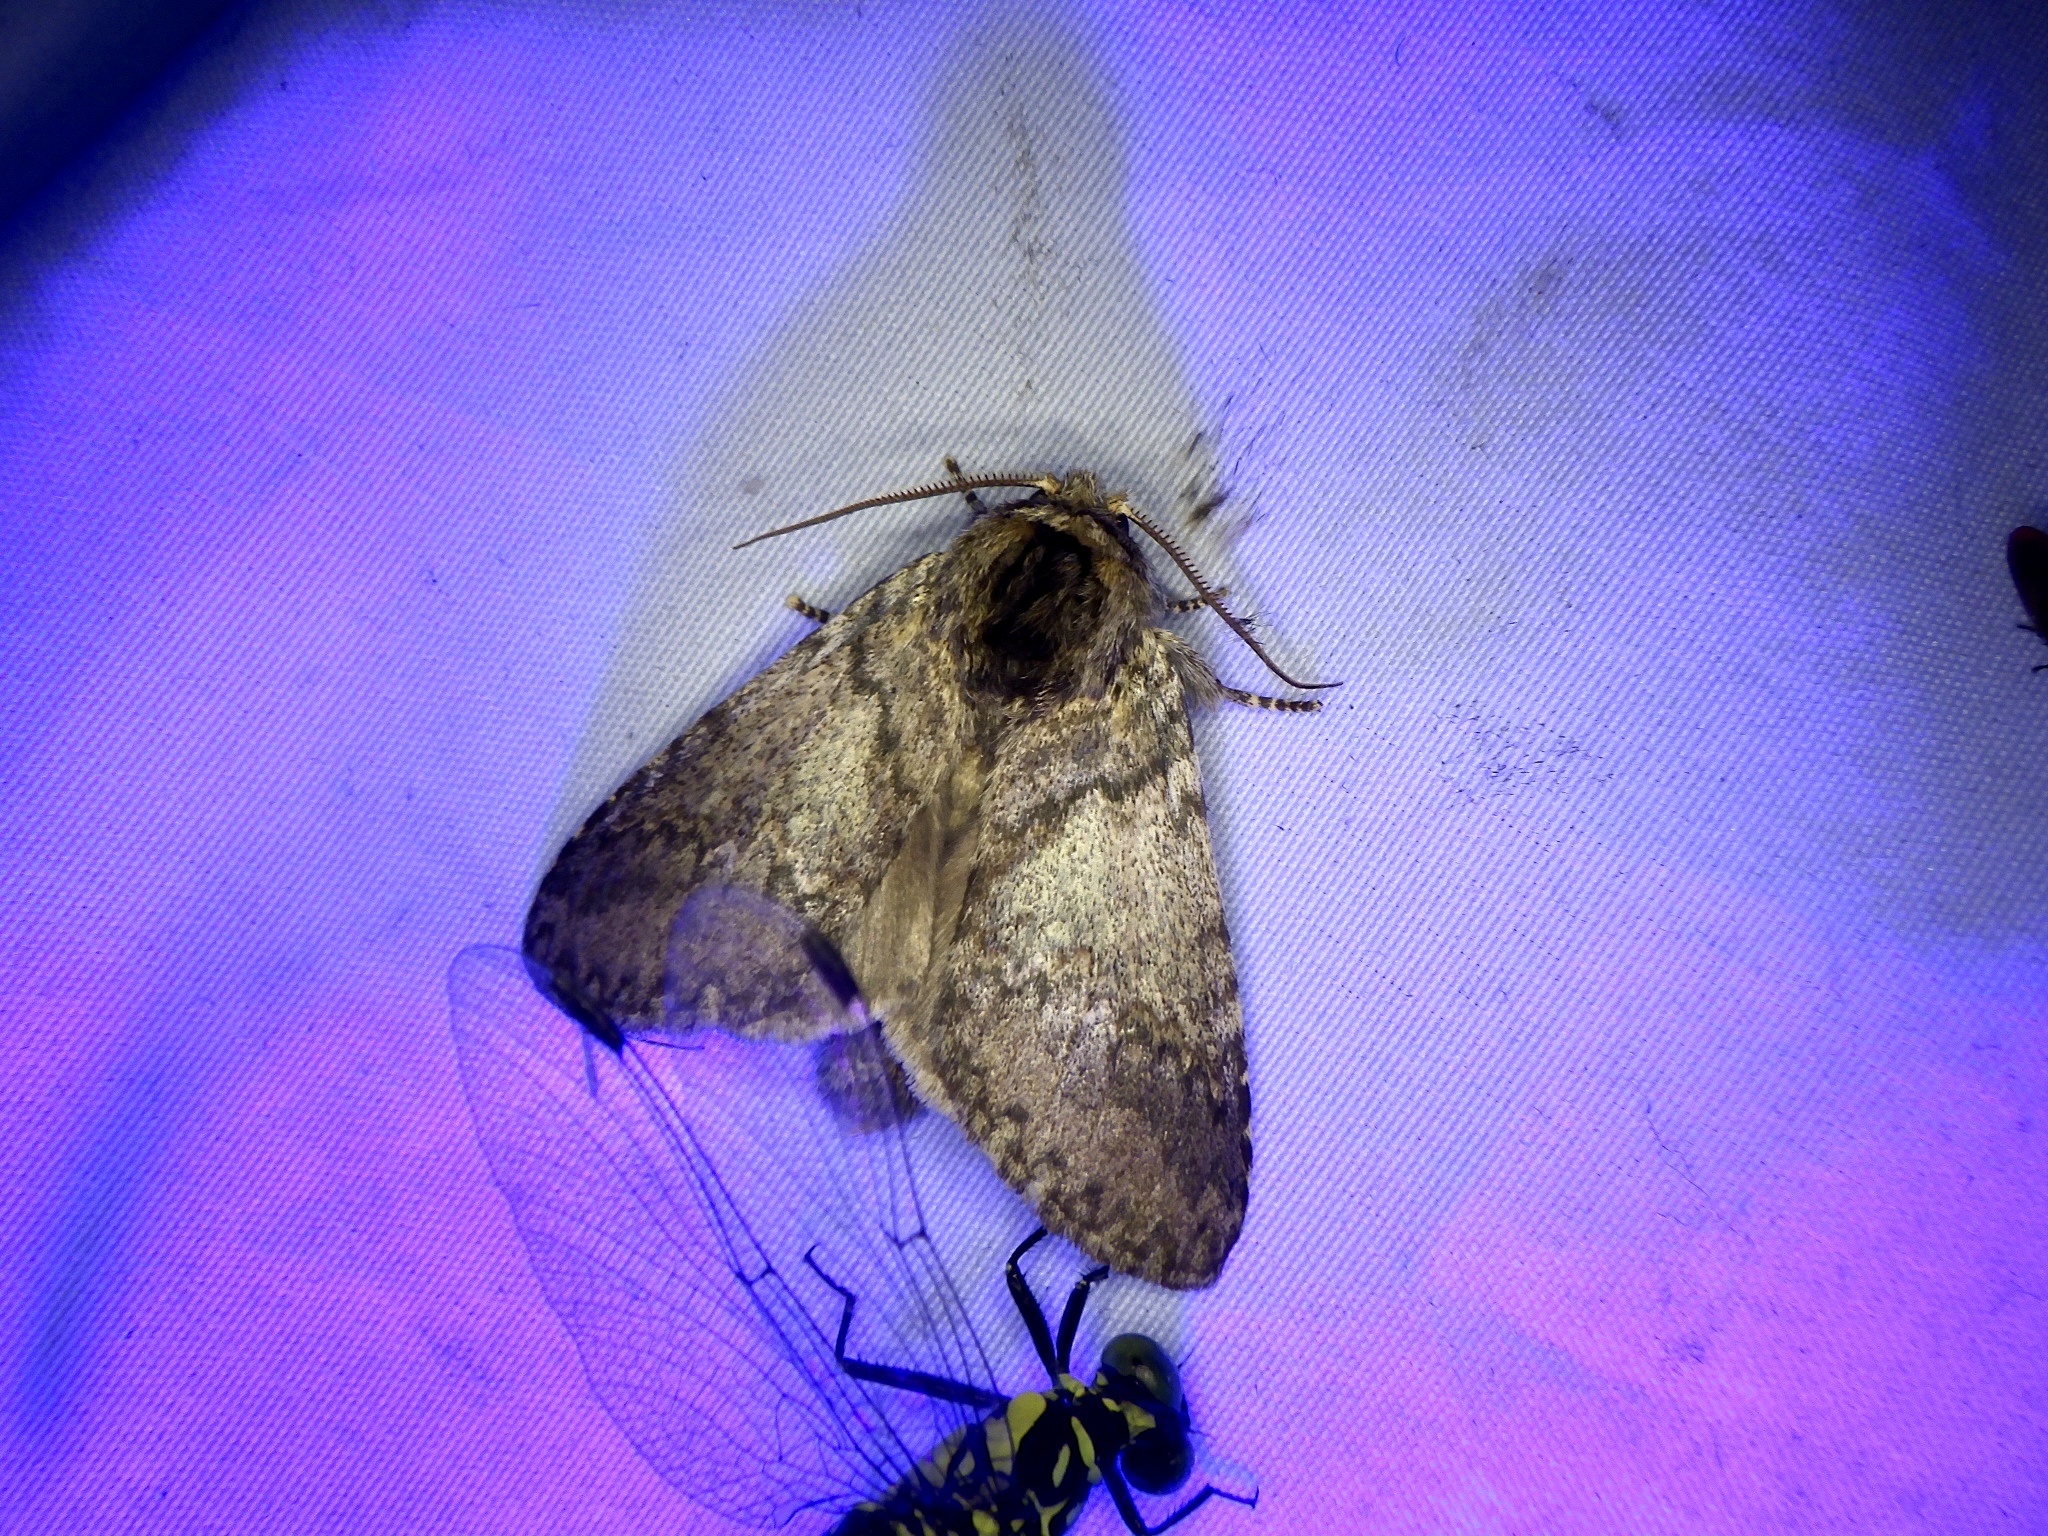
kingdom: Animalia
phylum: Arthropoda
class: Insecta
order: Lepidoptera
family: Notodontidae
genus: Disparia
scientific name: Disparia diluta
